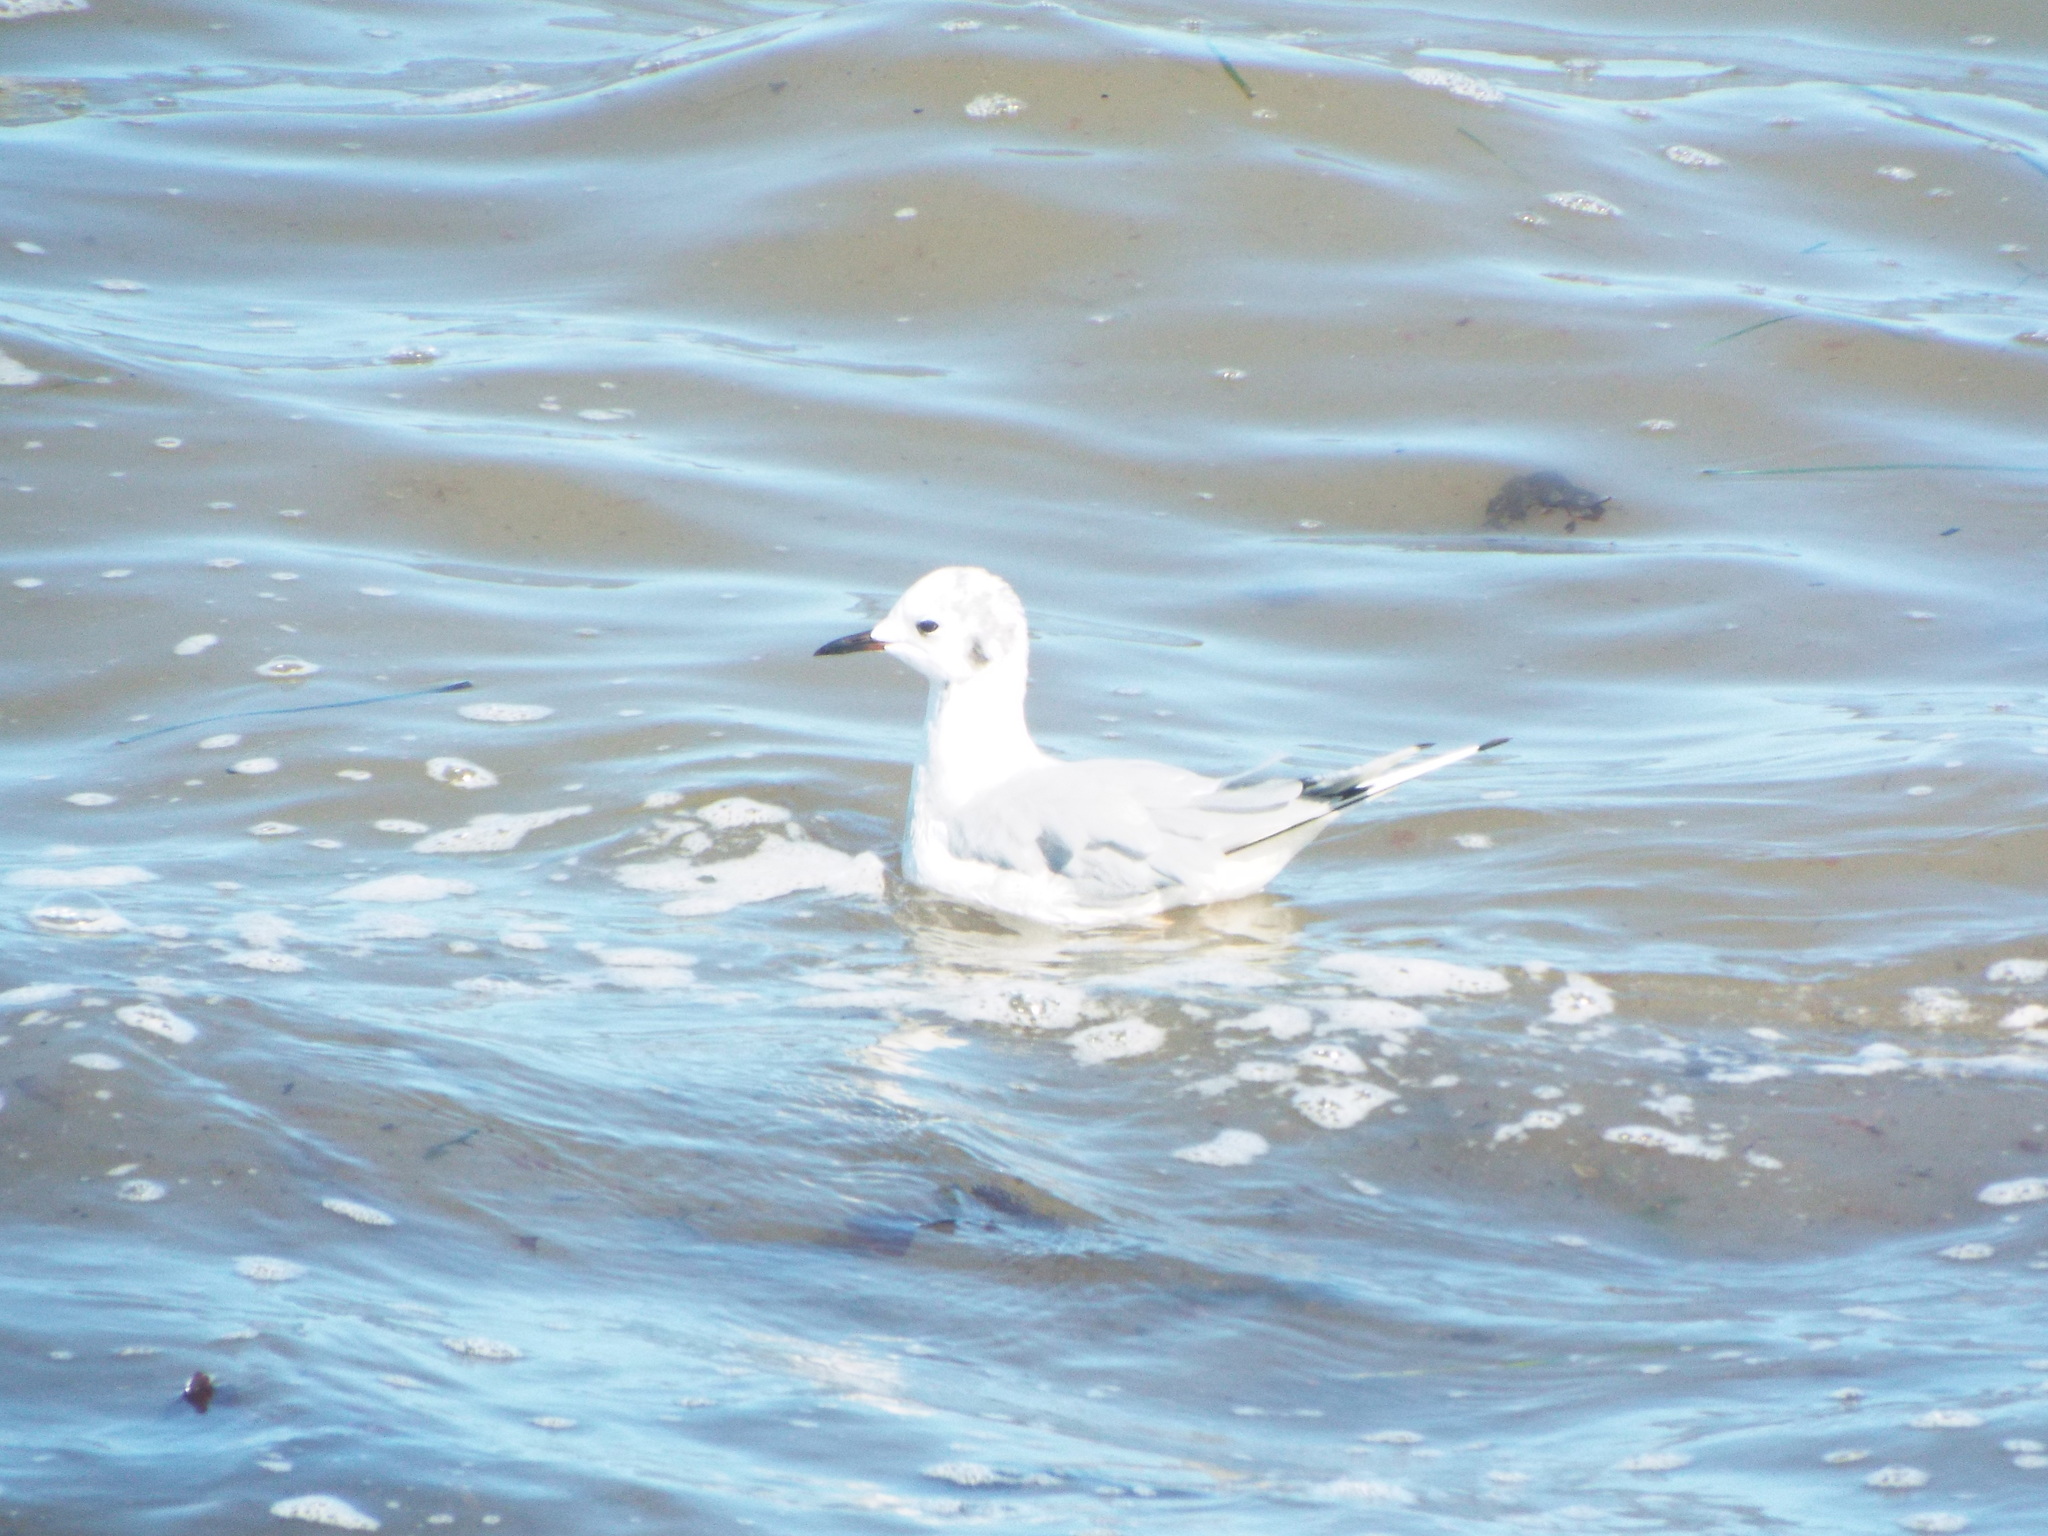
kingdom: Animalia
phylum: Chordata
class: Aves
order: Charadriiformes
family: Laridae
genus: Chroicocephalus
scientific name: Chroicocephalus philadelphia
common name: Bonaparte's gull
